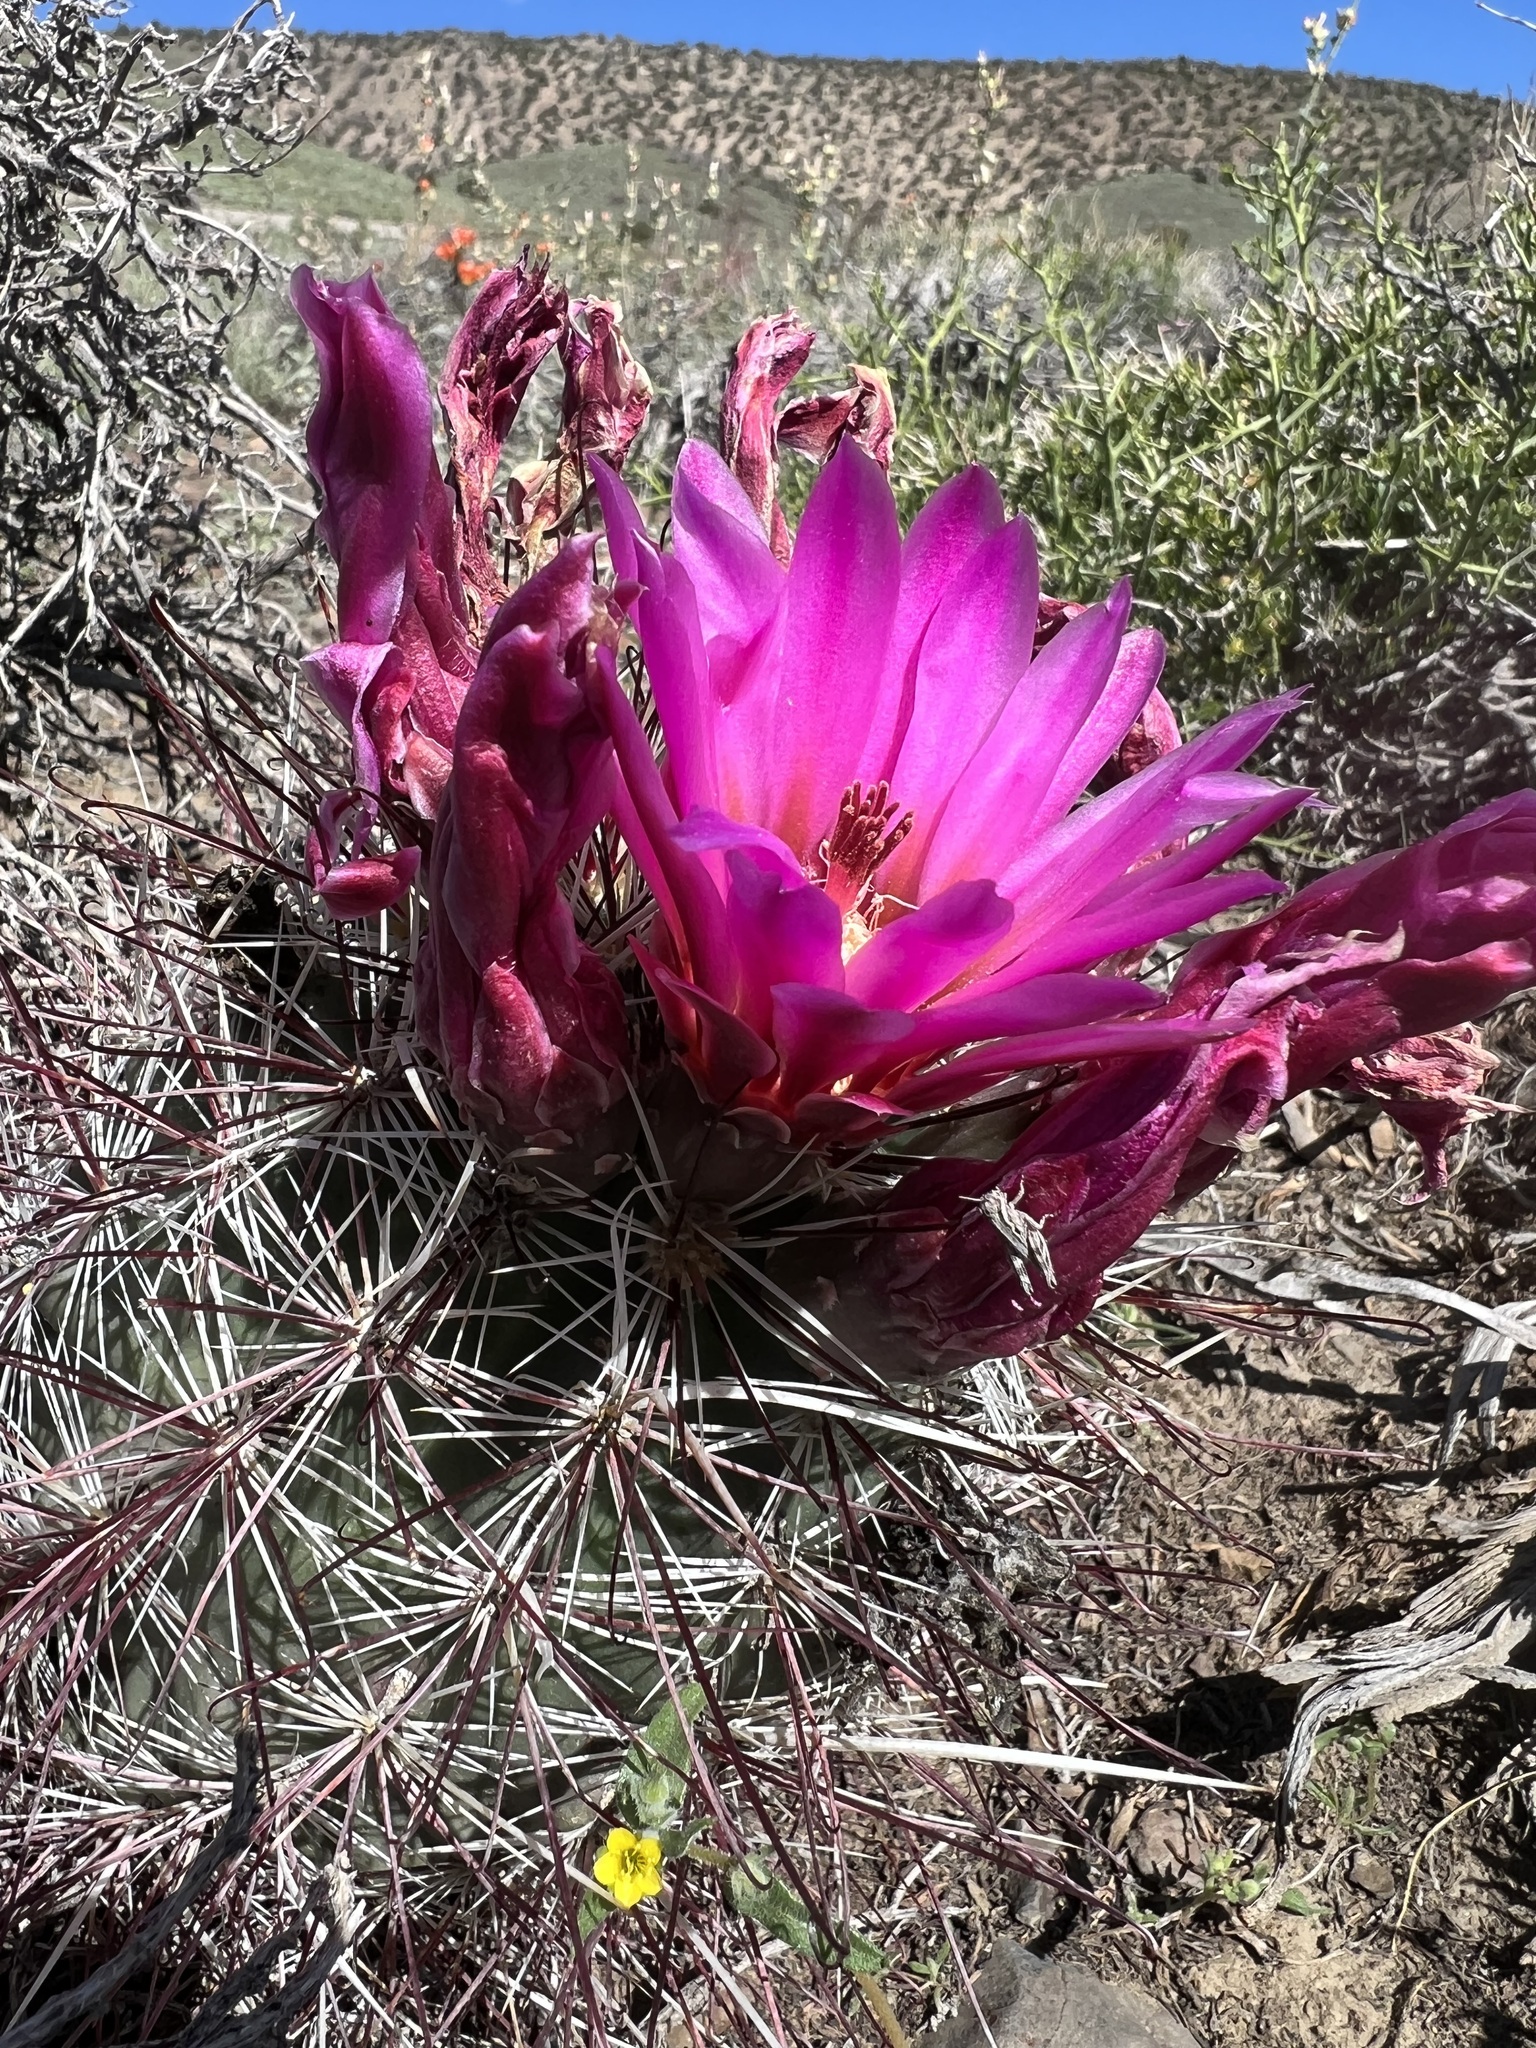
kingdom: Plantae
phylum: Tracheophyta
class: Magnoliopsida
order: Caryophyllales
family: Cactaceae
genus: Sclerocactus
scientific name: Sclerocactus polyancistrus
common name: Mohave fishhook cactus
